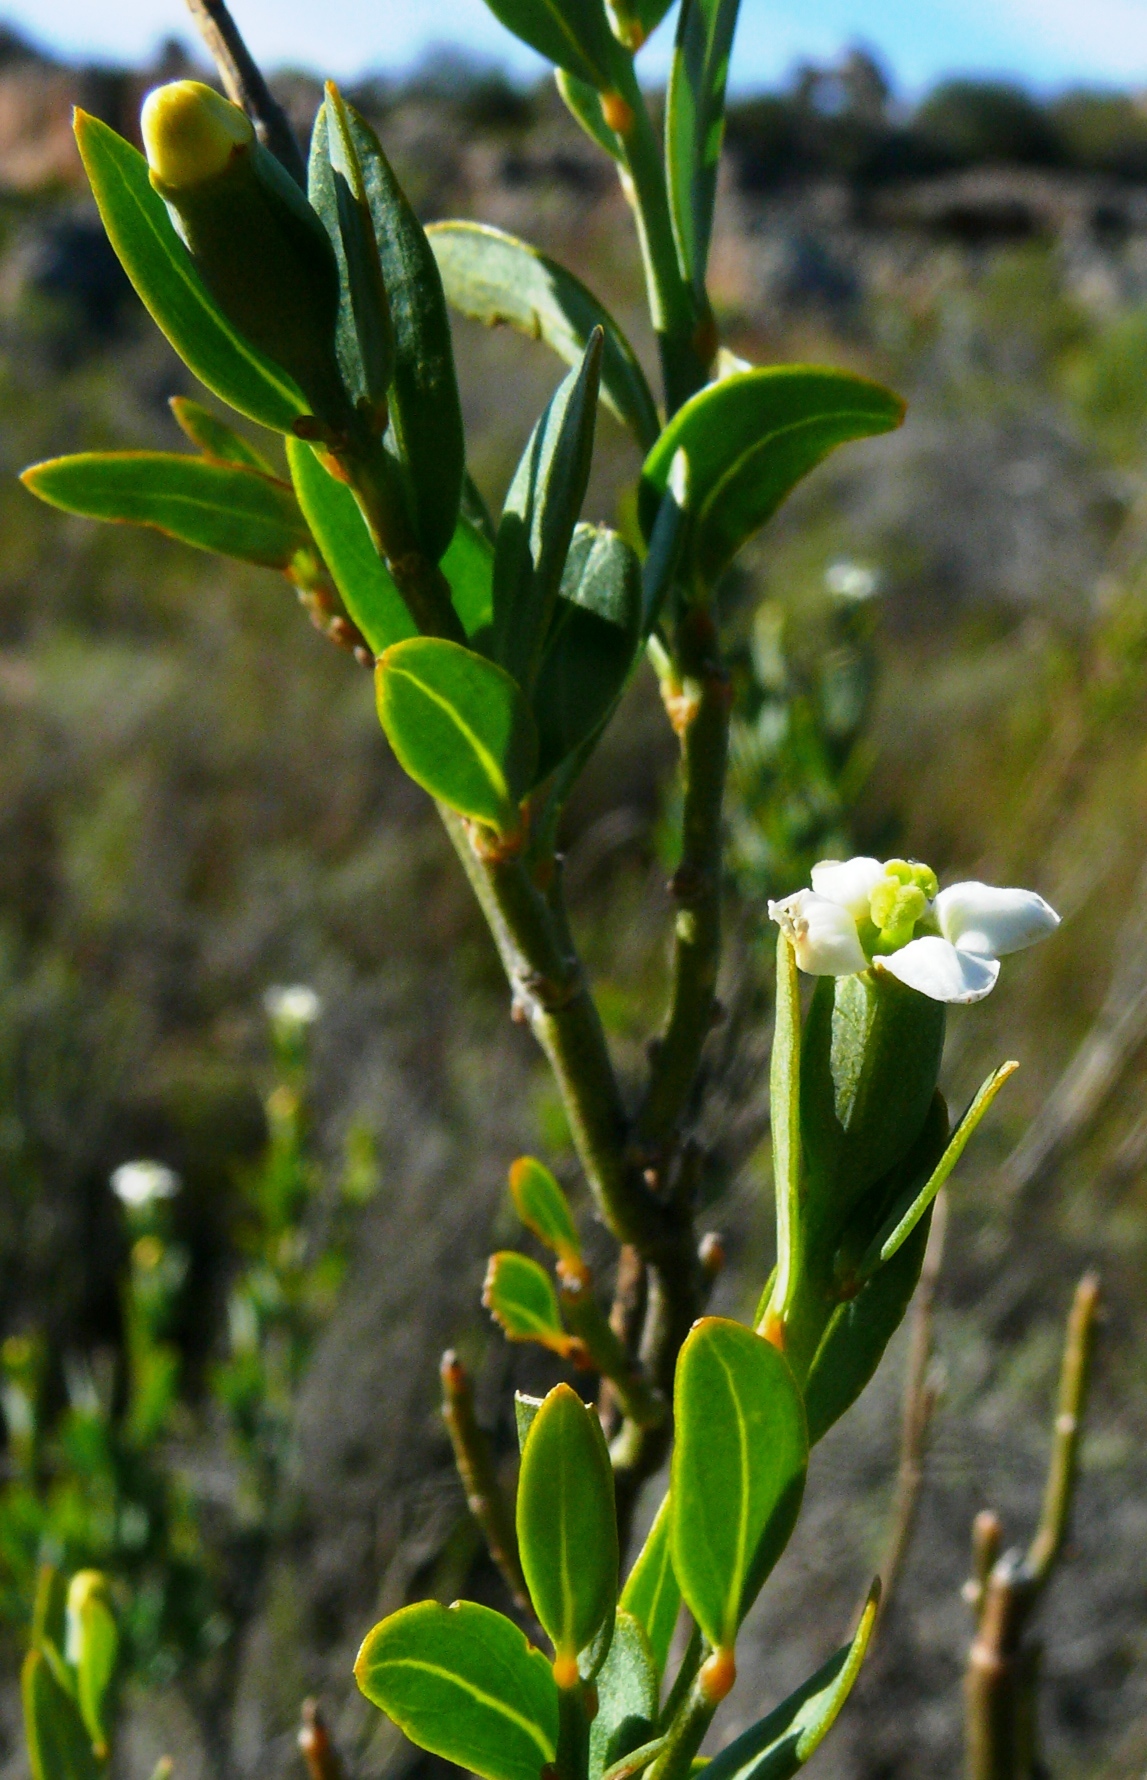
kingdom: Plantae
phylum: Tracheophyta
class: Magnoliopsida
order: Solanales
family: Montiniaceae
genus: Montinia
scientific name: Montinia caryophyllacea
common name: Wild clove-bush
